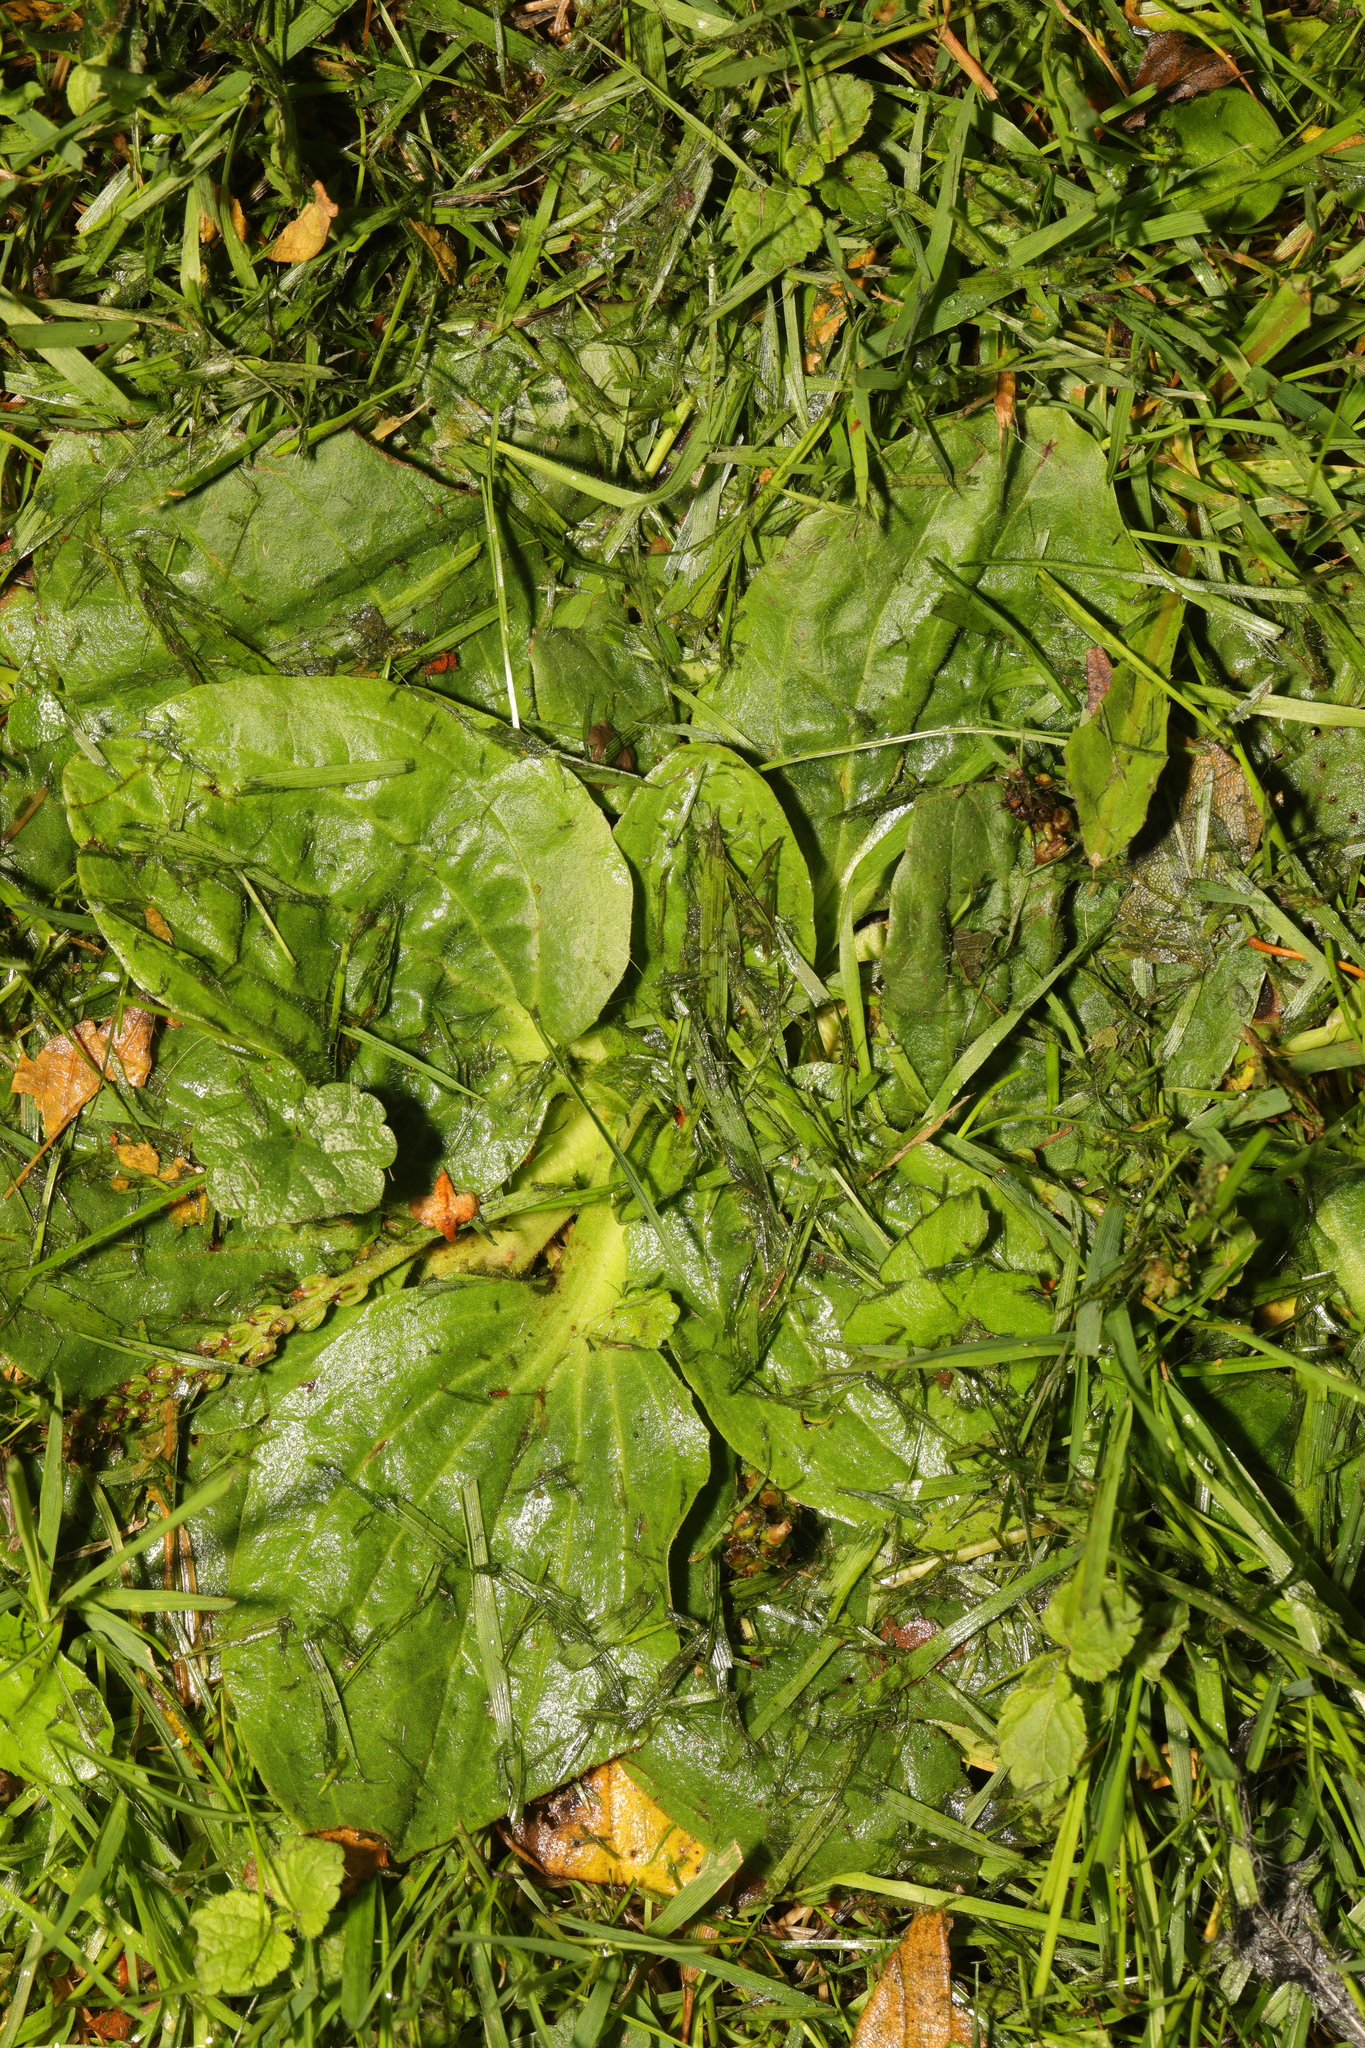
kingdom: Plantae
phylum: Tracheophyta
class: Magnoliopsida
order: Lamiales
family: Plantaginaceae
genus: Plantago
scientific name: Plantago major
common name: Common plantain
